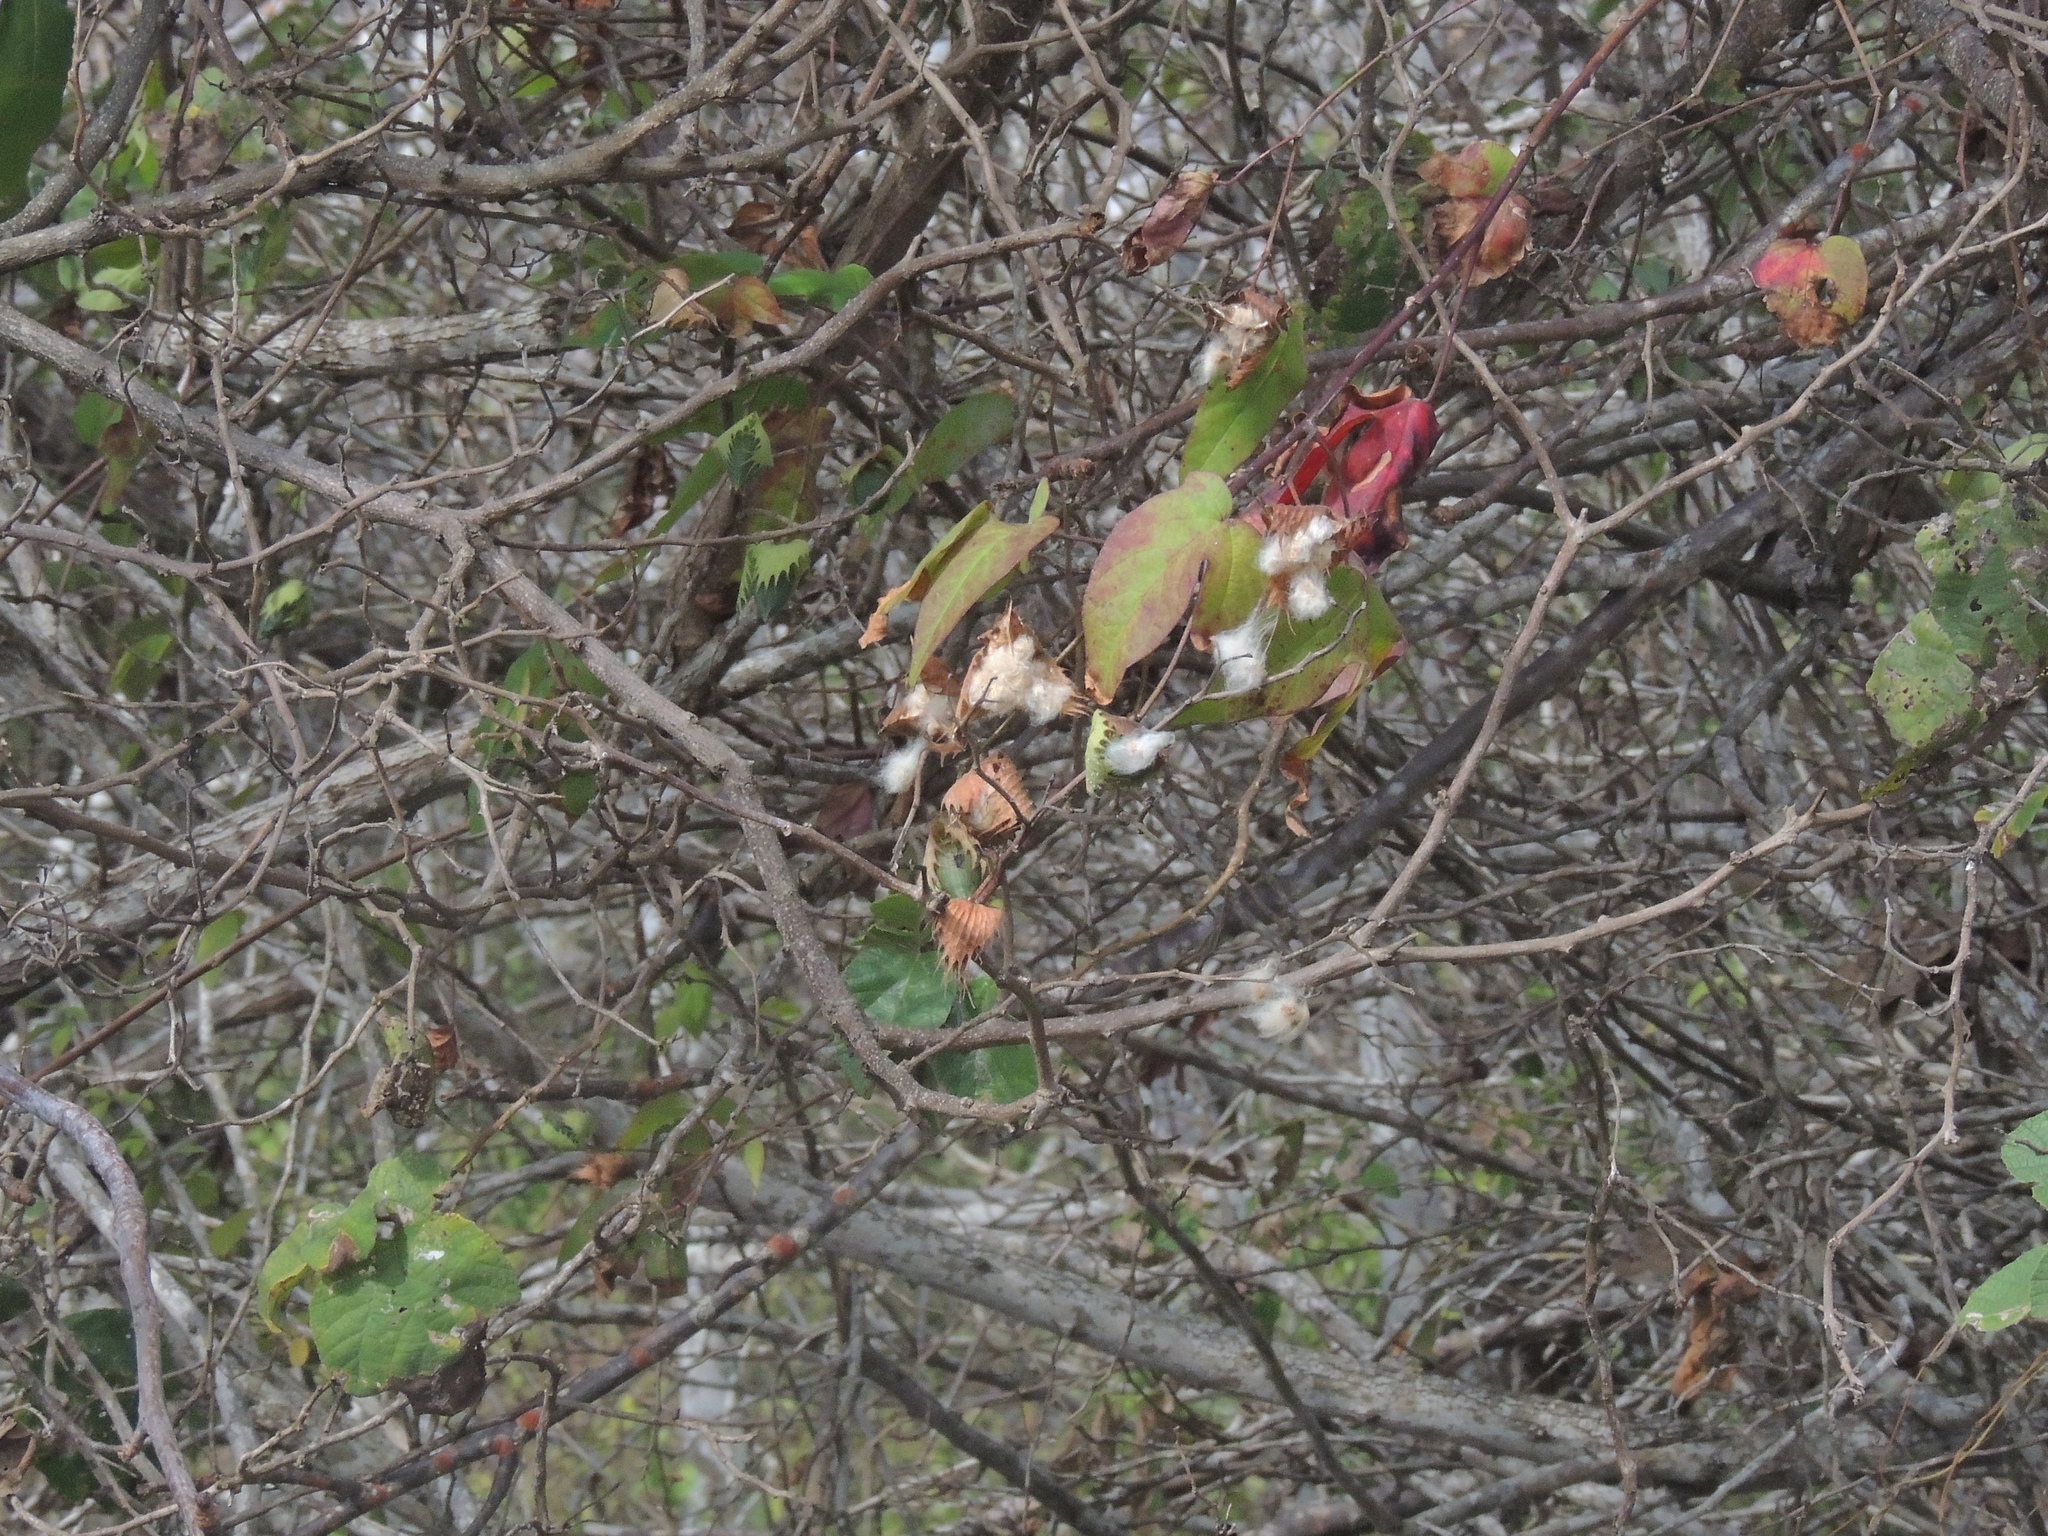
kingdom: Plantae
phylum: Tracheophyta
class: Magnoliopsida
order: Malvales
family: Malvaceae
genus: Gossypium
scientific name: Gossypium darwinii
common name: Darwin's cotton
